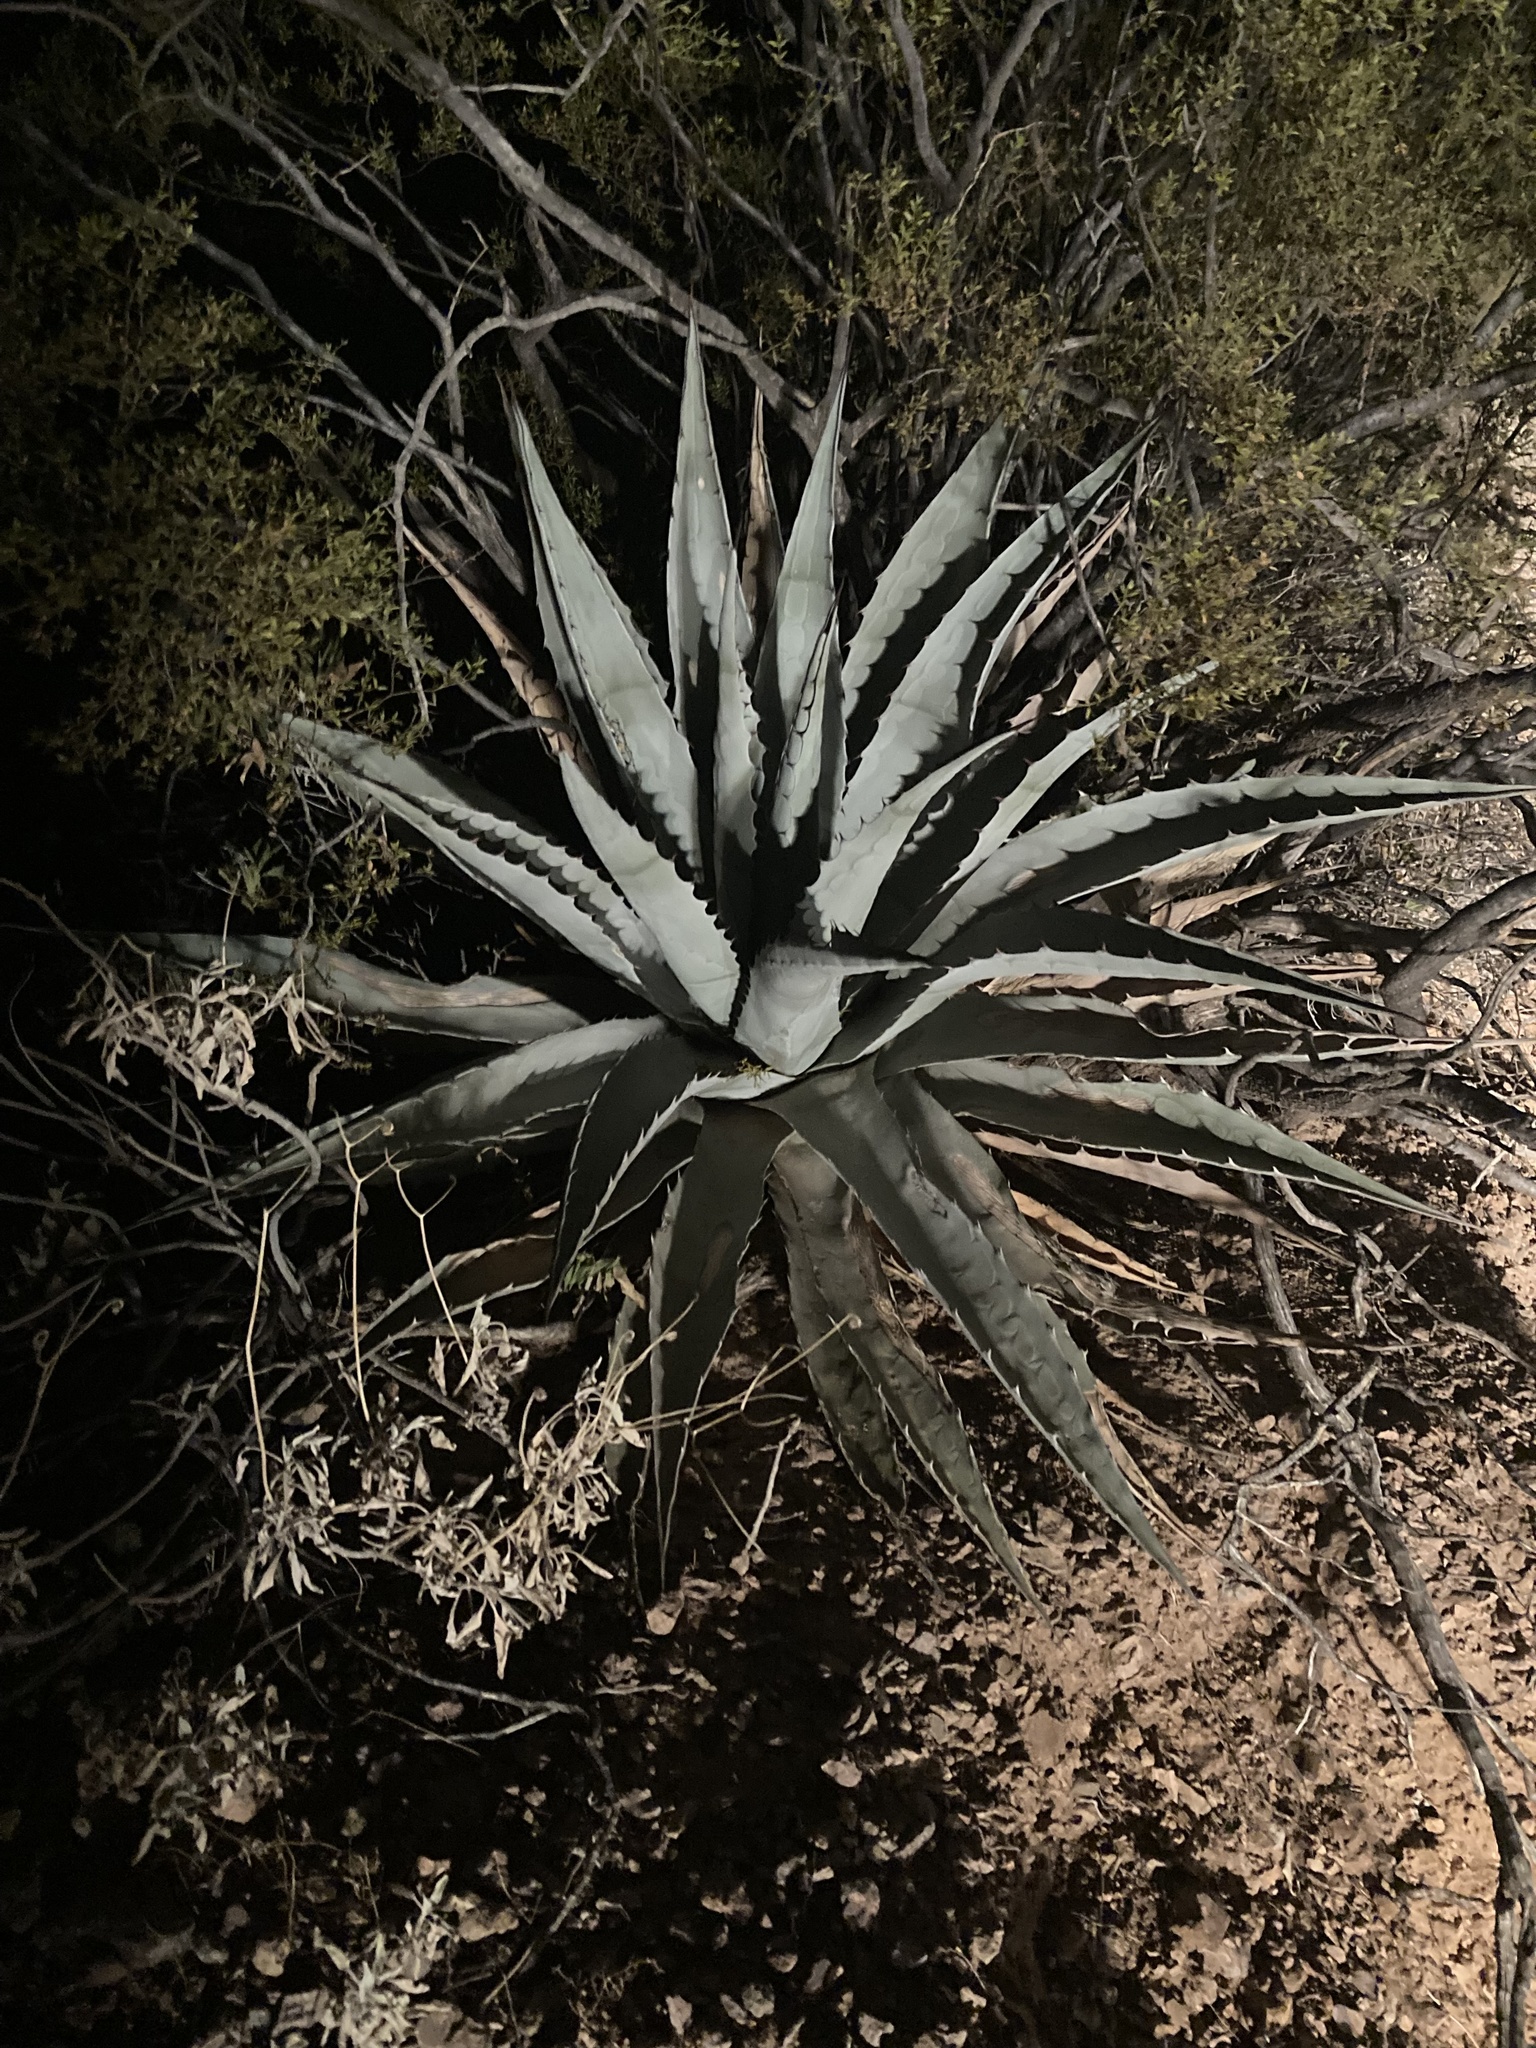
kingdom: Plantae
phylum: Tracheophyta
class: Liliopsida
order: Asparagales
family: Asparagaceae
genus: Agave
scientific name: Agave simplex
